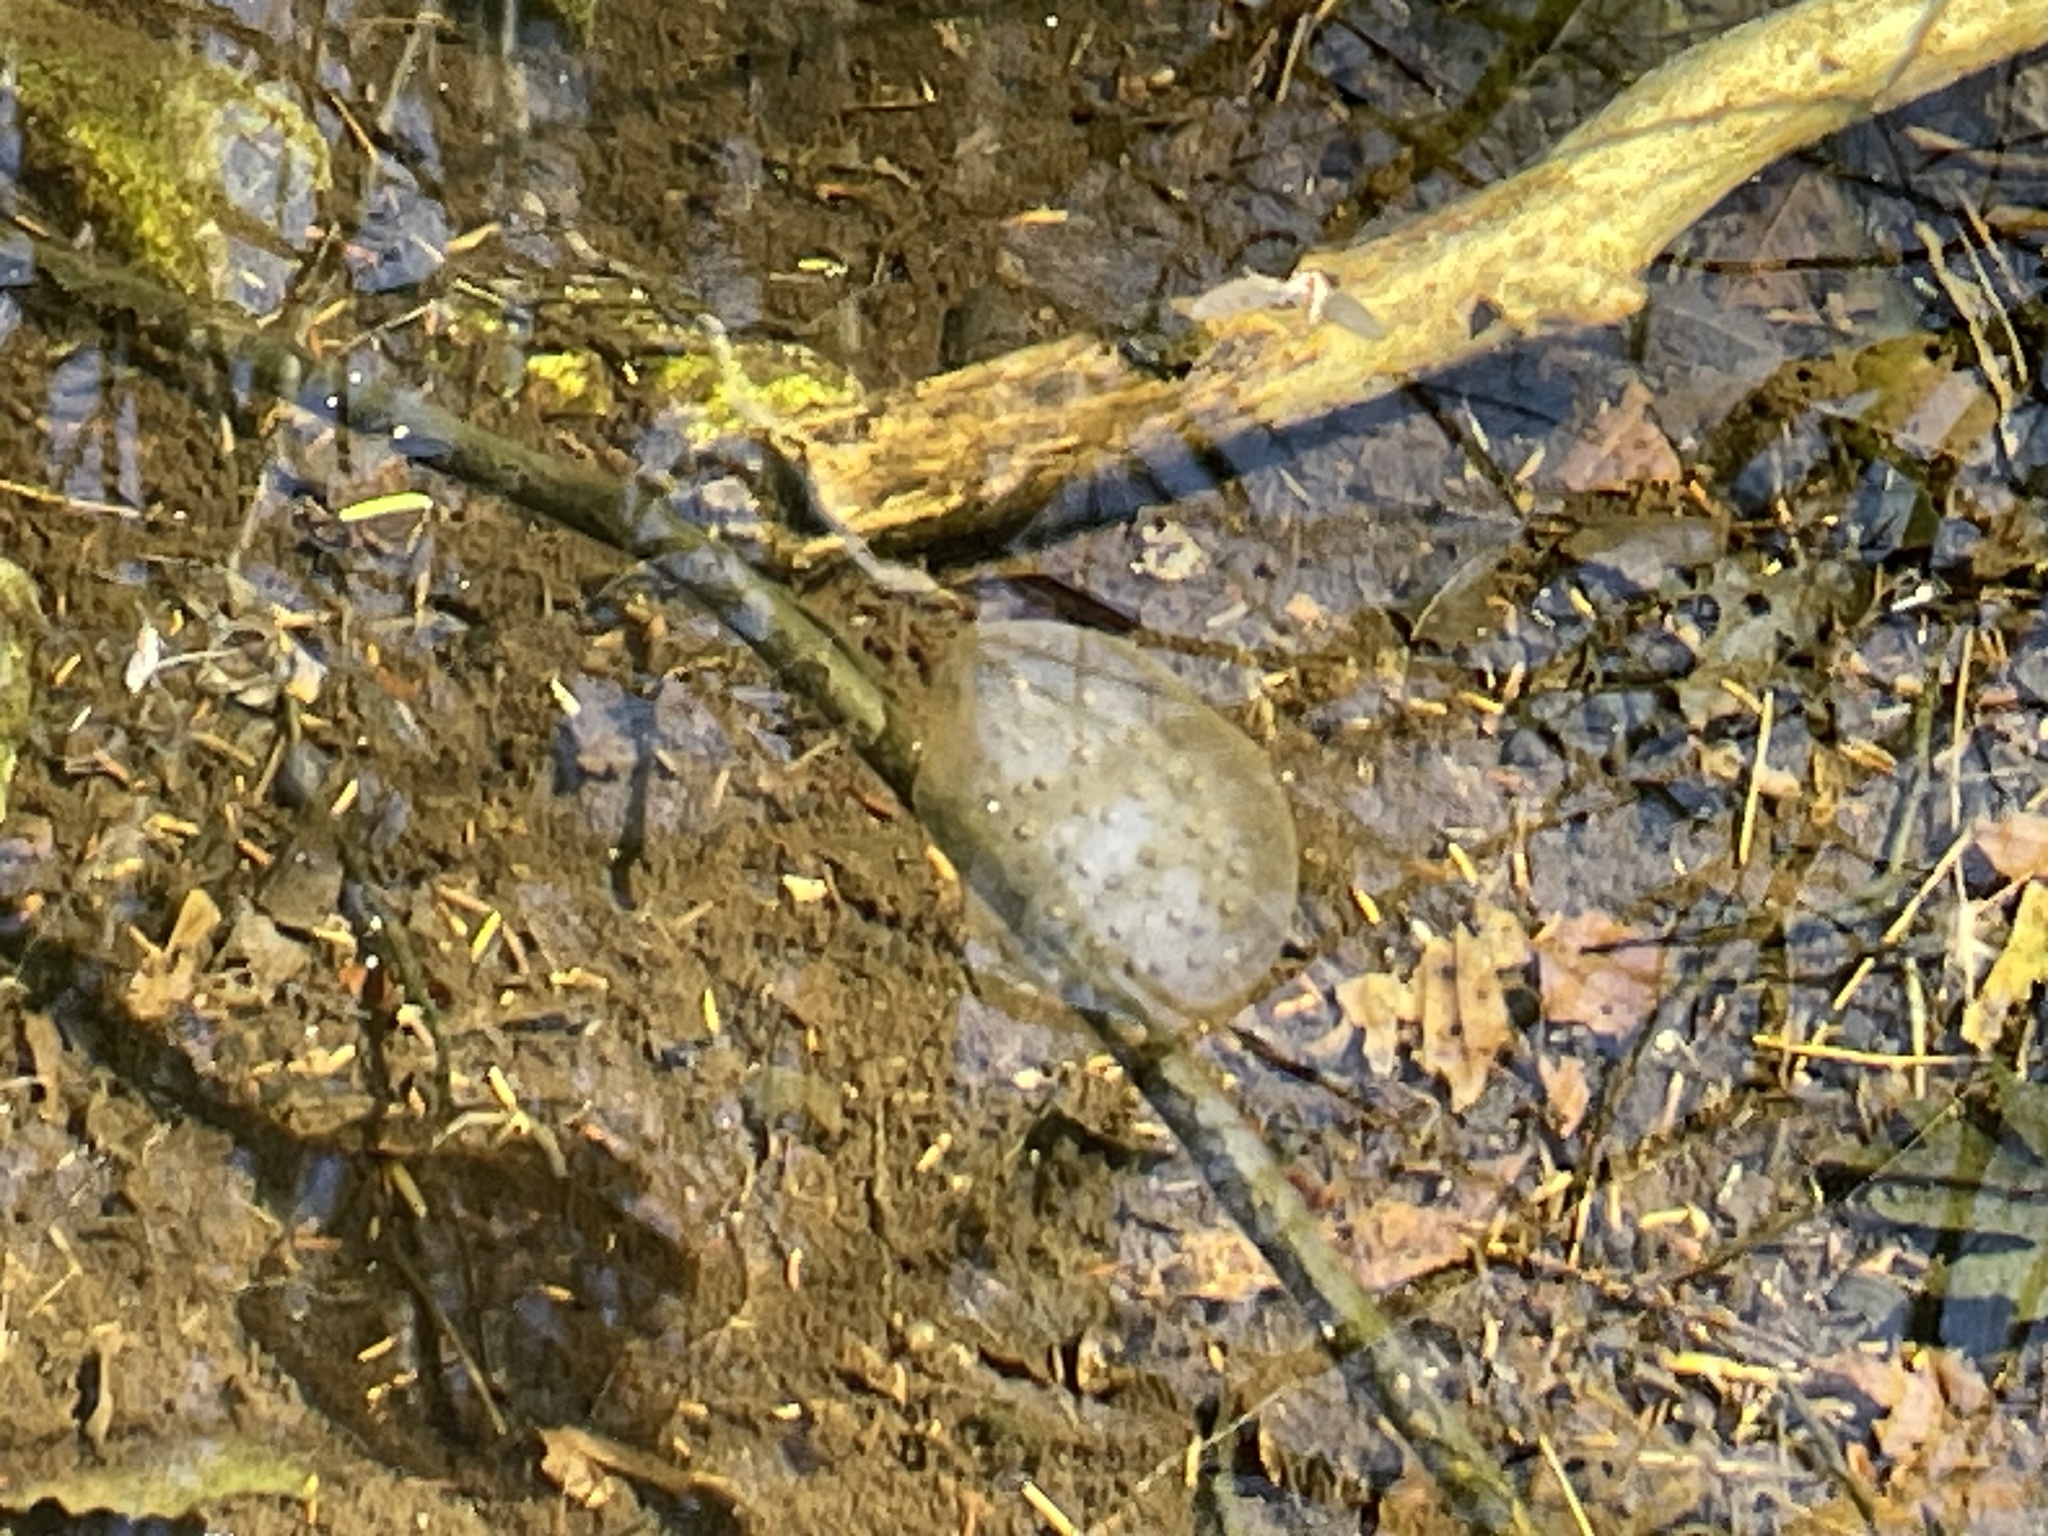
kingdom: Animalia
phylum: Chordata
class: Amphibia
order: Caudata
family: Ambystomatidae
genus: Ambystoma
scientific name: Ambystoma maculatum
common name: Spotted salamander
